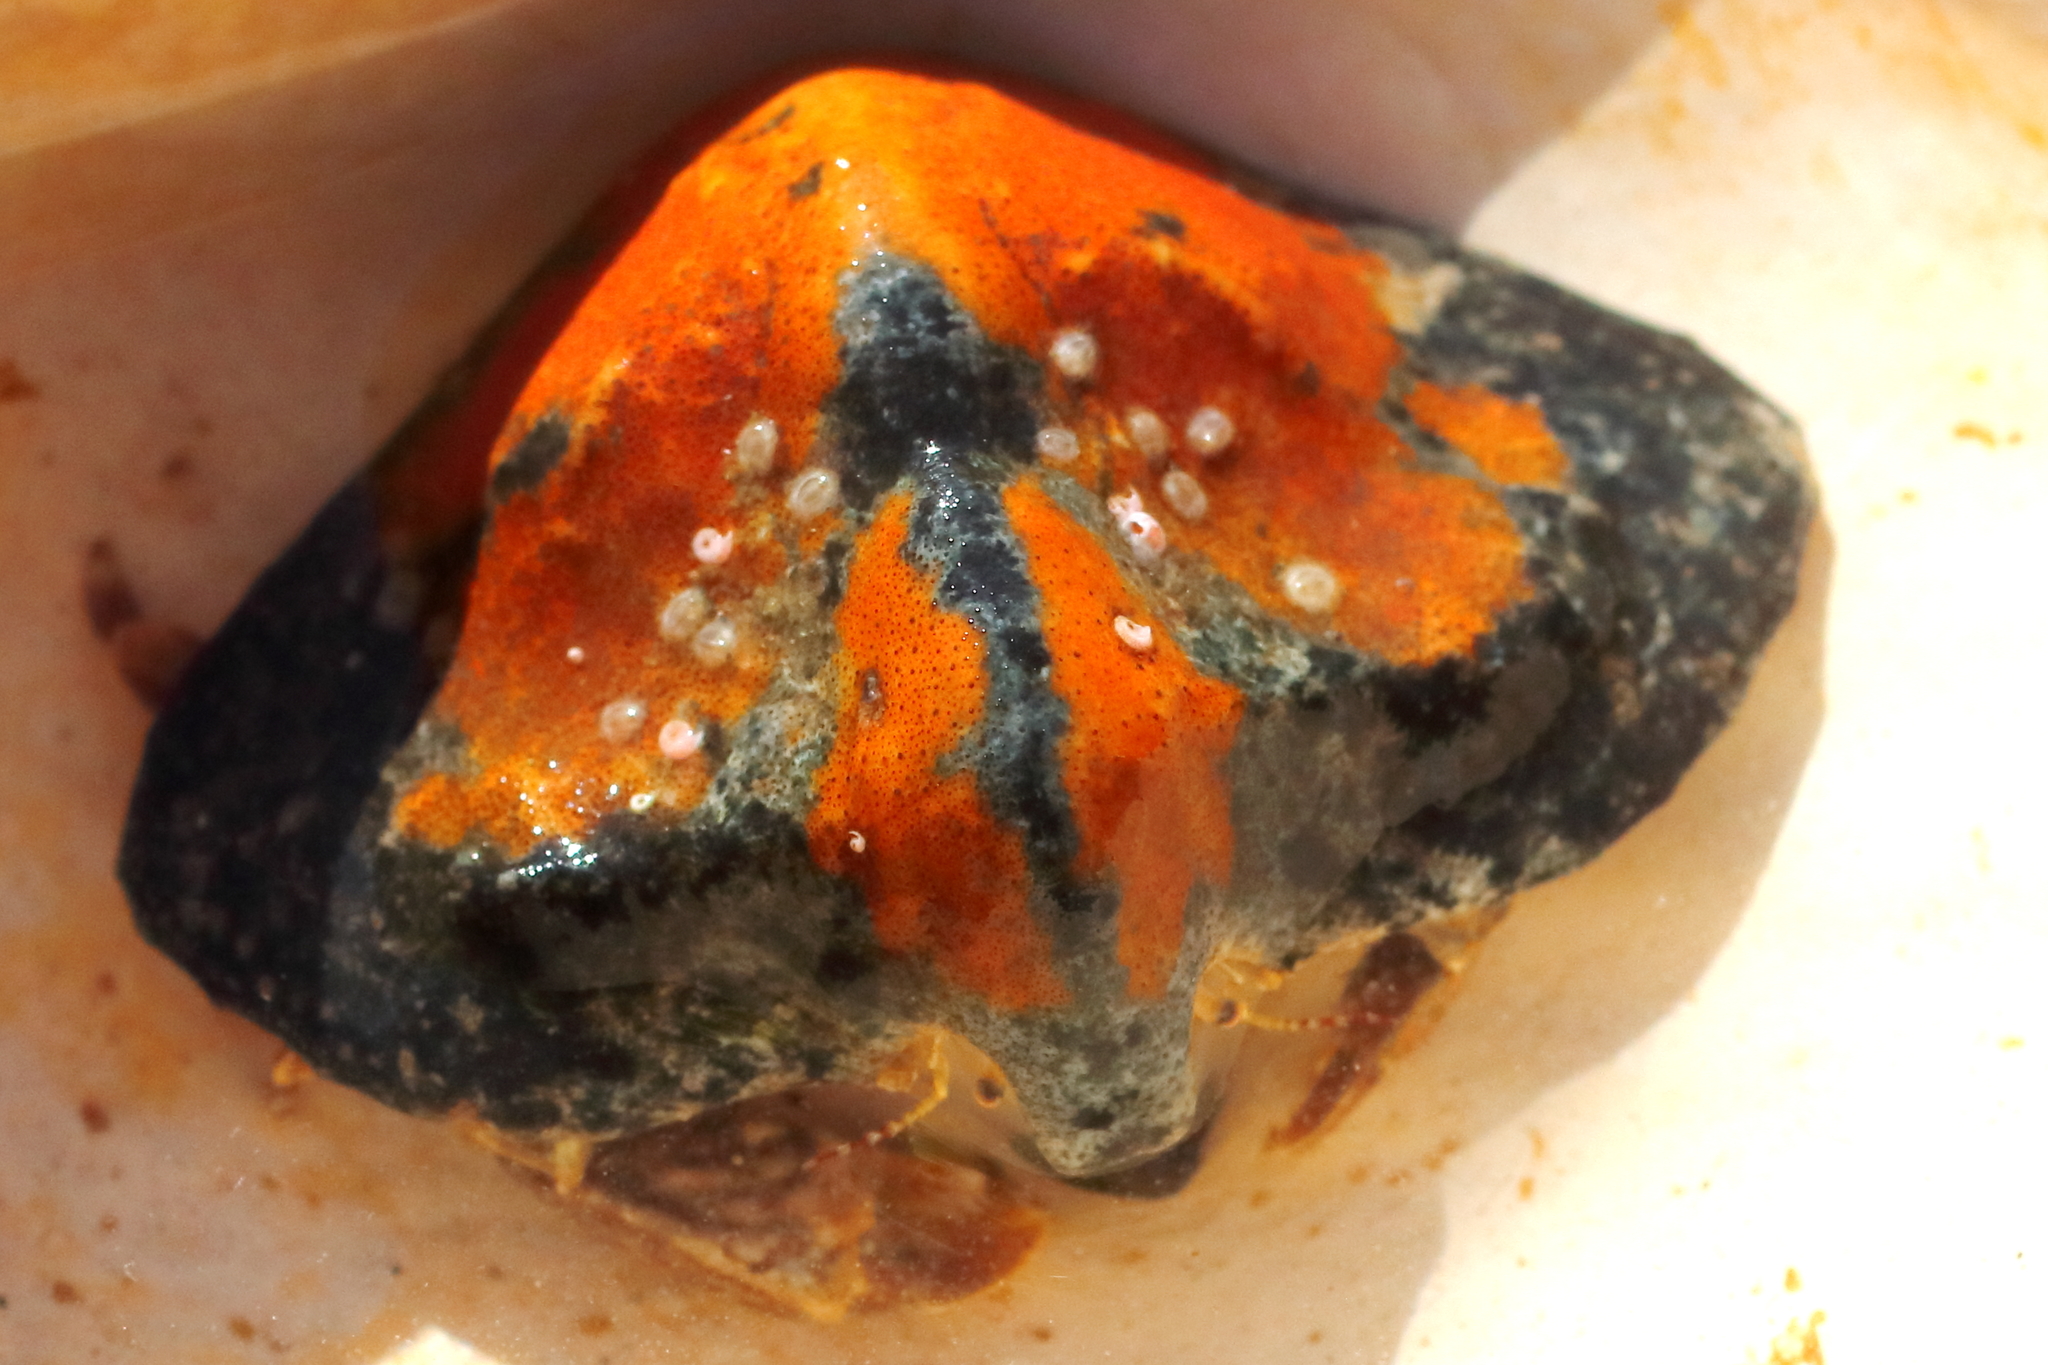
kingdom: Animalia
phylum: Arthropoda
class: Malacostraca
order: Decapoda
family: Lithodidae
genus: Cryptolithodes
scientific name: Cryptolithodes typicus
